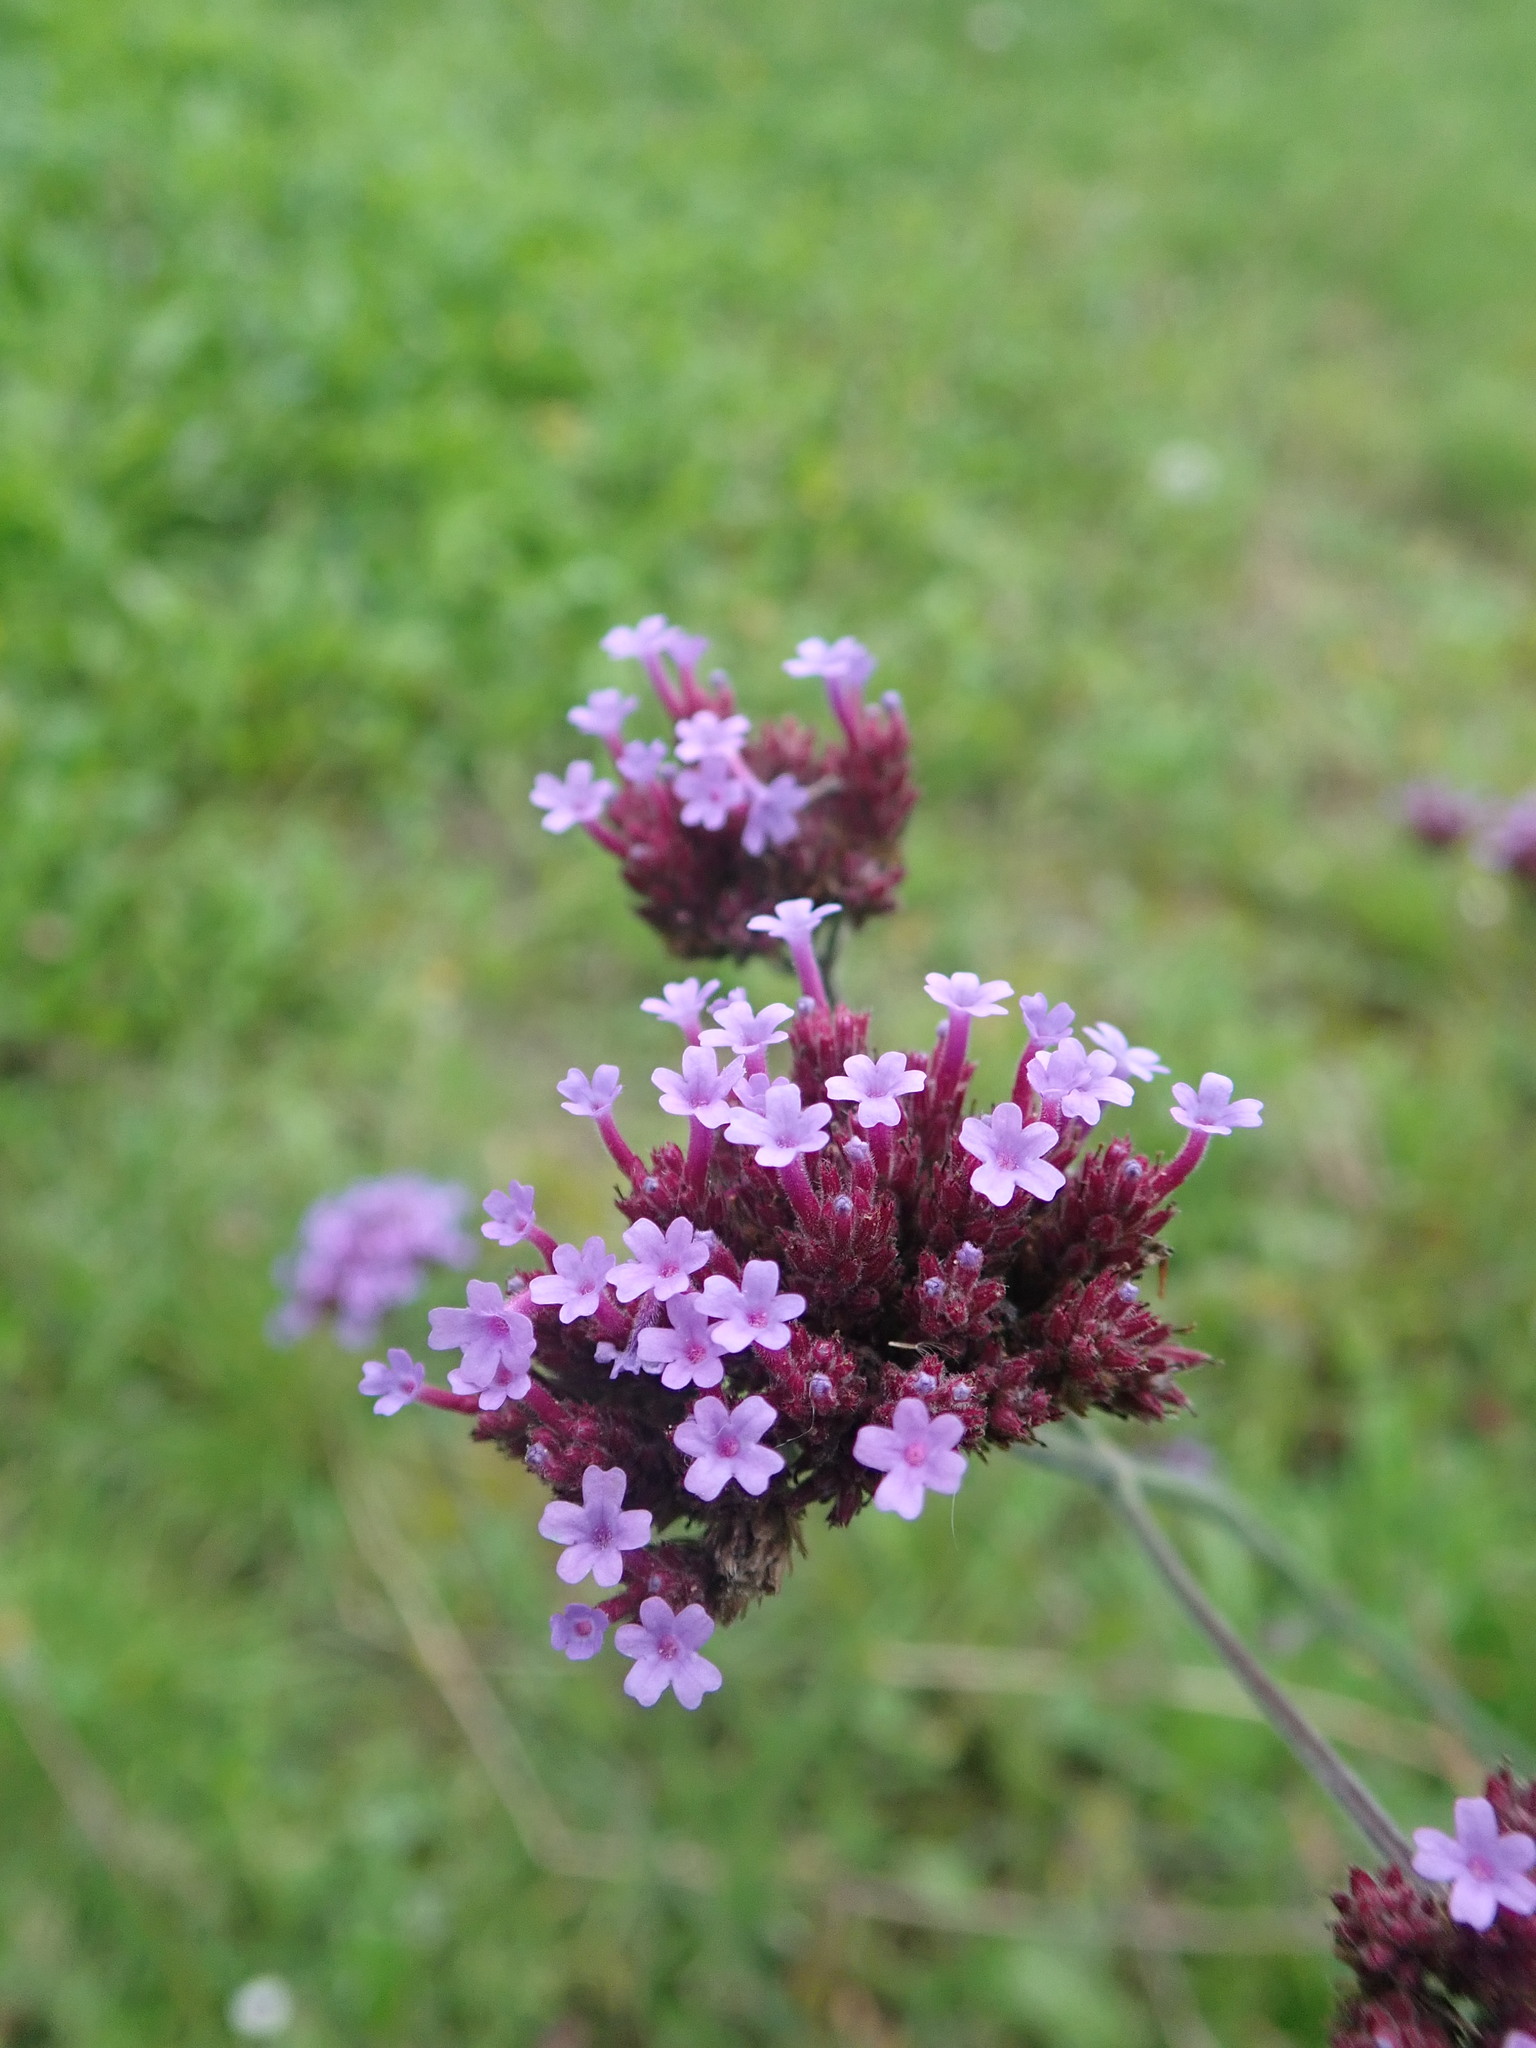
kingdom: Plantae
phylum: Tracheophyta
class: Magnoliopsida
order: Lamiales
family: Verbenaceae
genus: Verbena
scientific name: Verbena bonariensis
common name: Purpletop vervain
